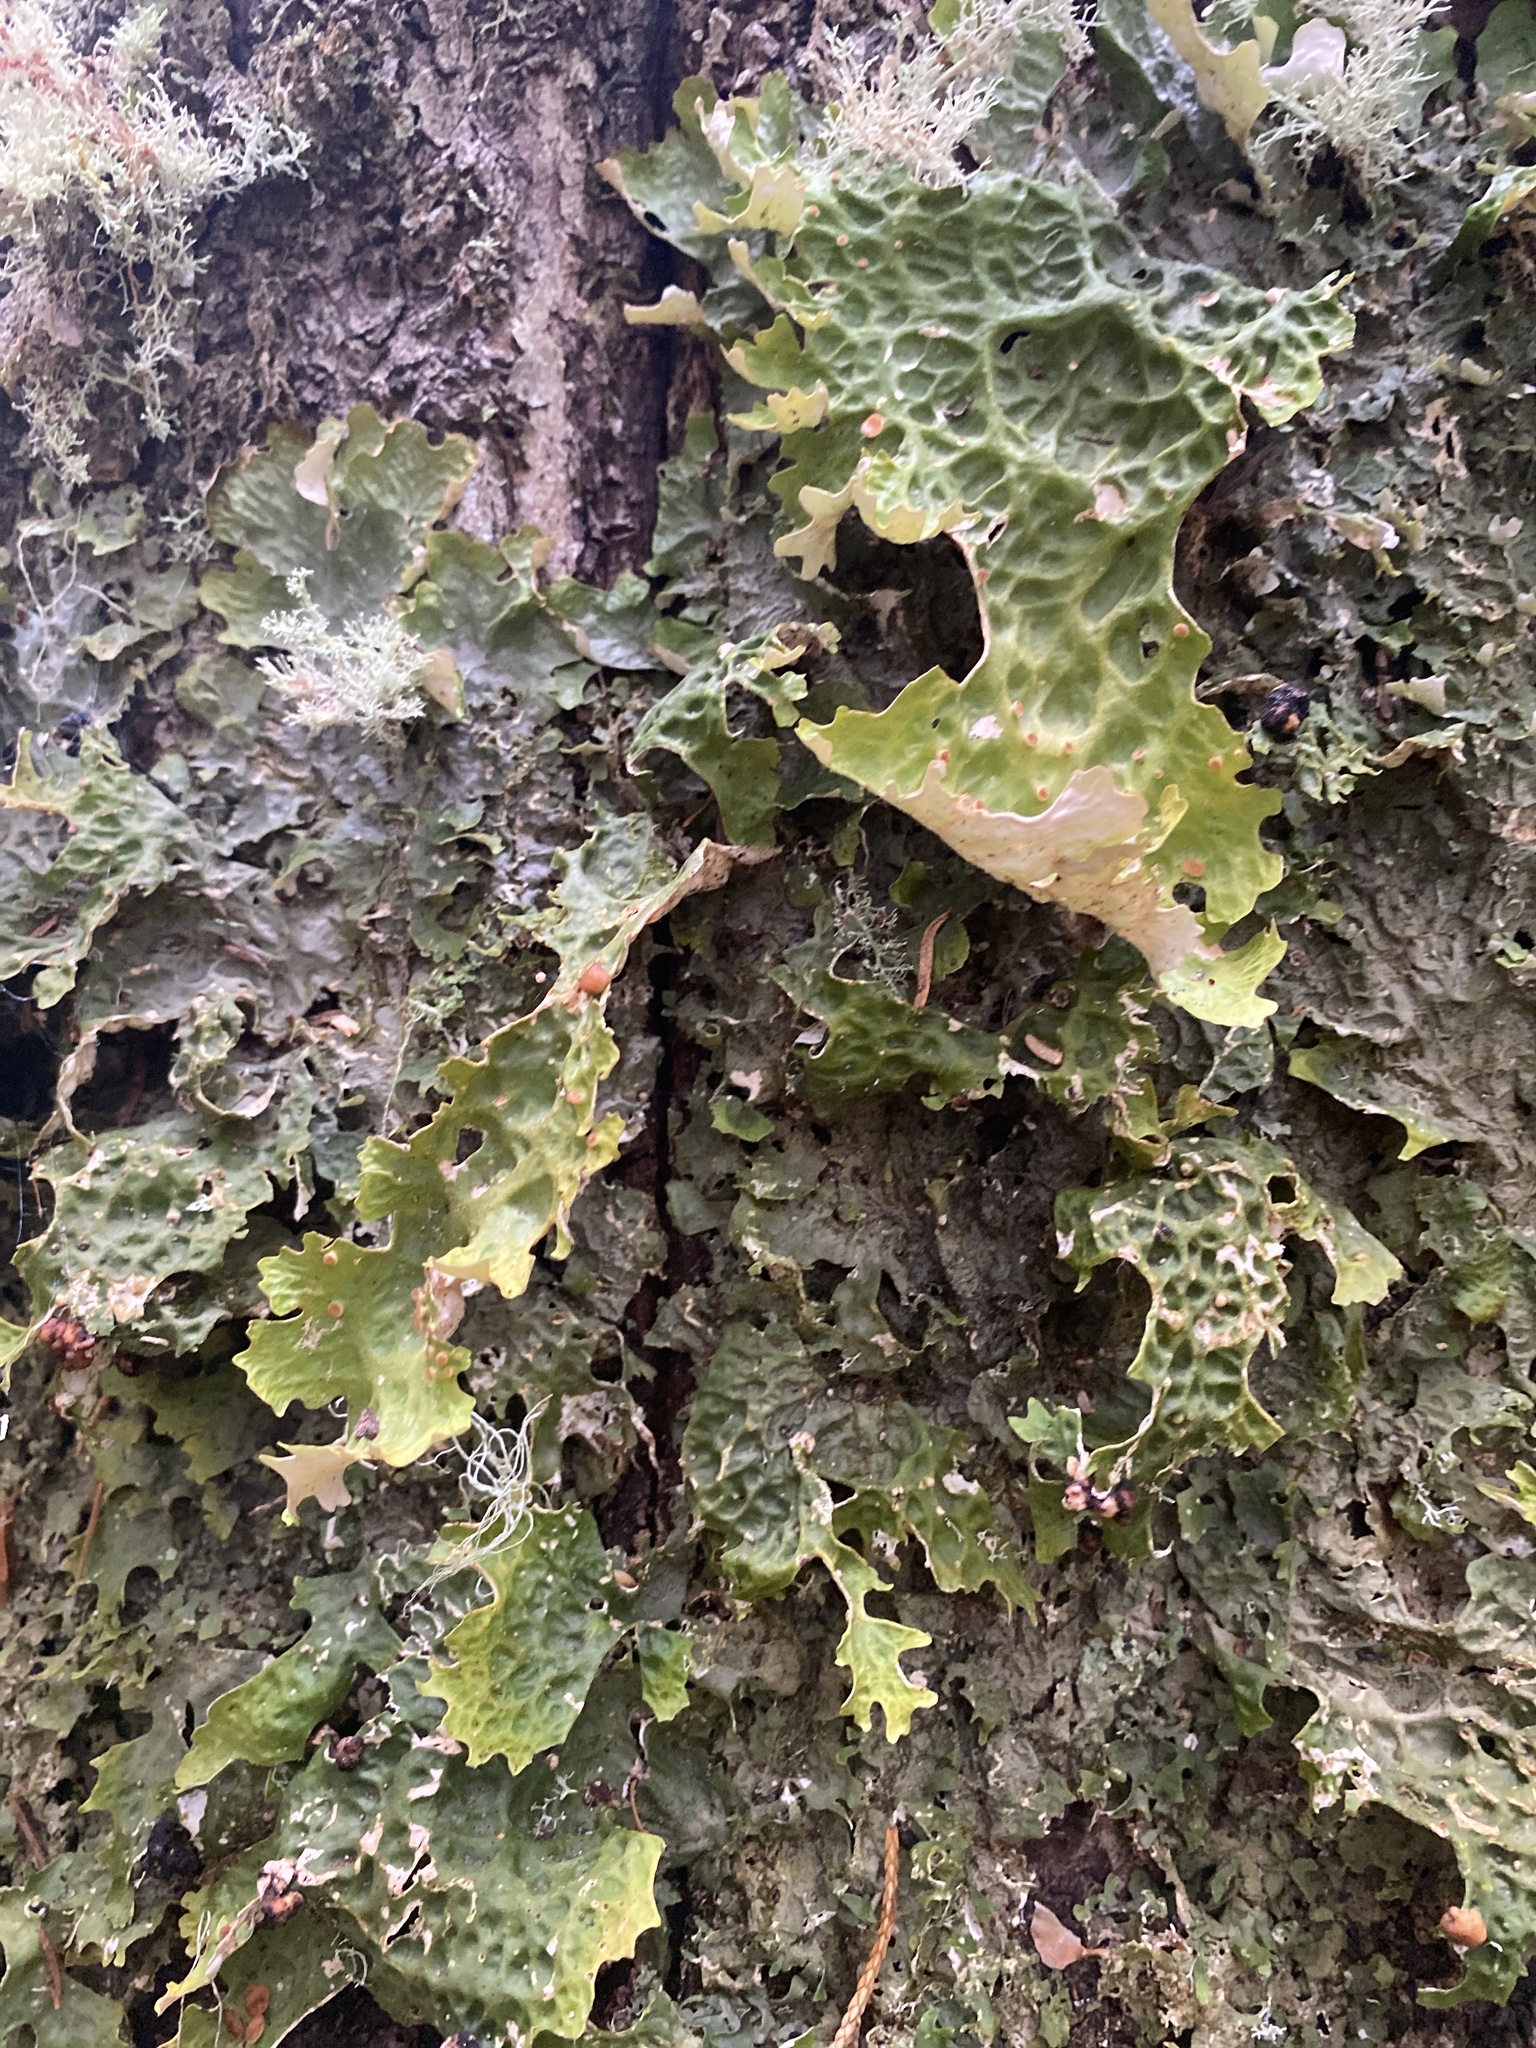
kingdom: Fungi
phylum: Ascomycota
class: Lecanoromycetes
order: Peltigerales
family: Lobariaceae
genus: Lobaria
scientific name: Lobaria pulmonaria
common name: Lungwort
